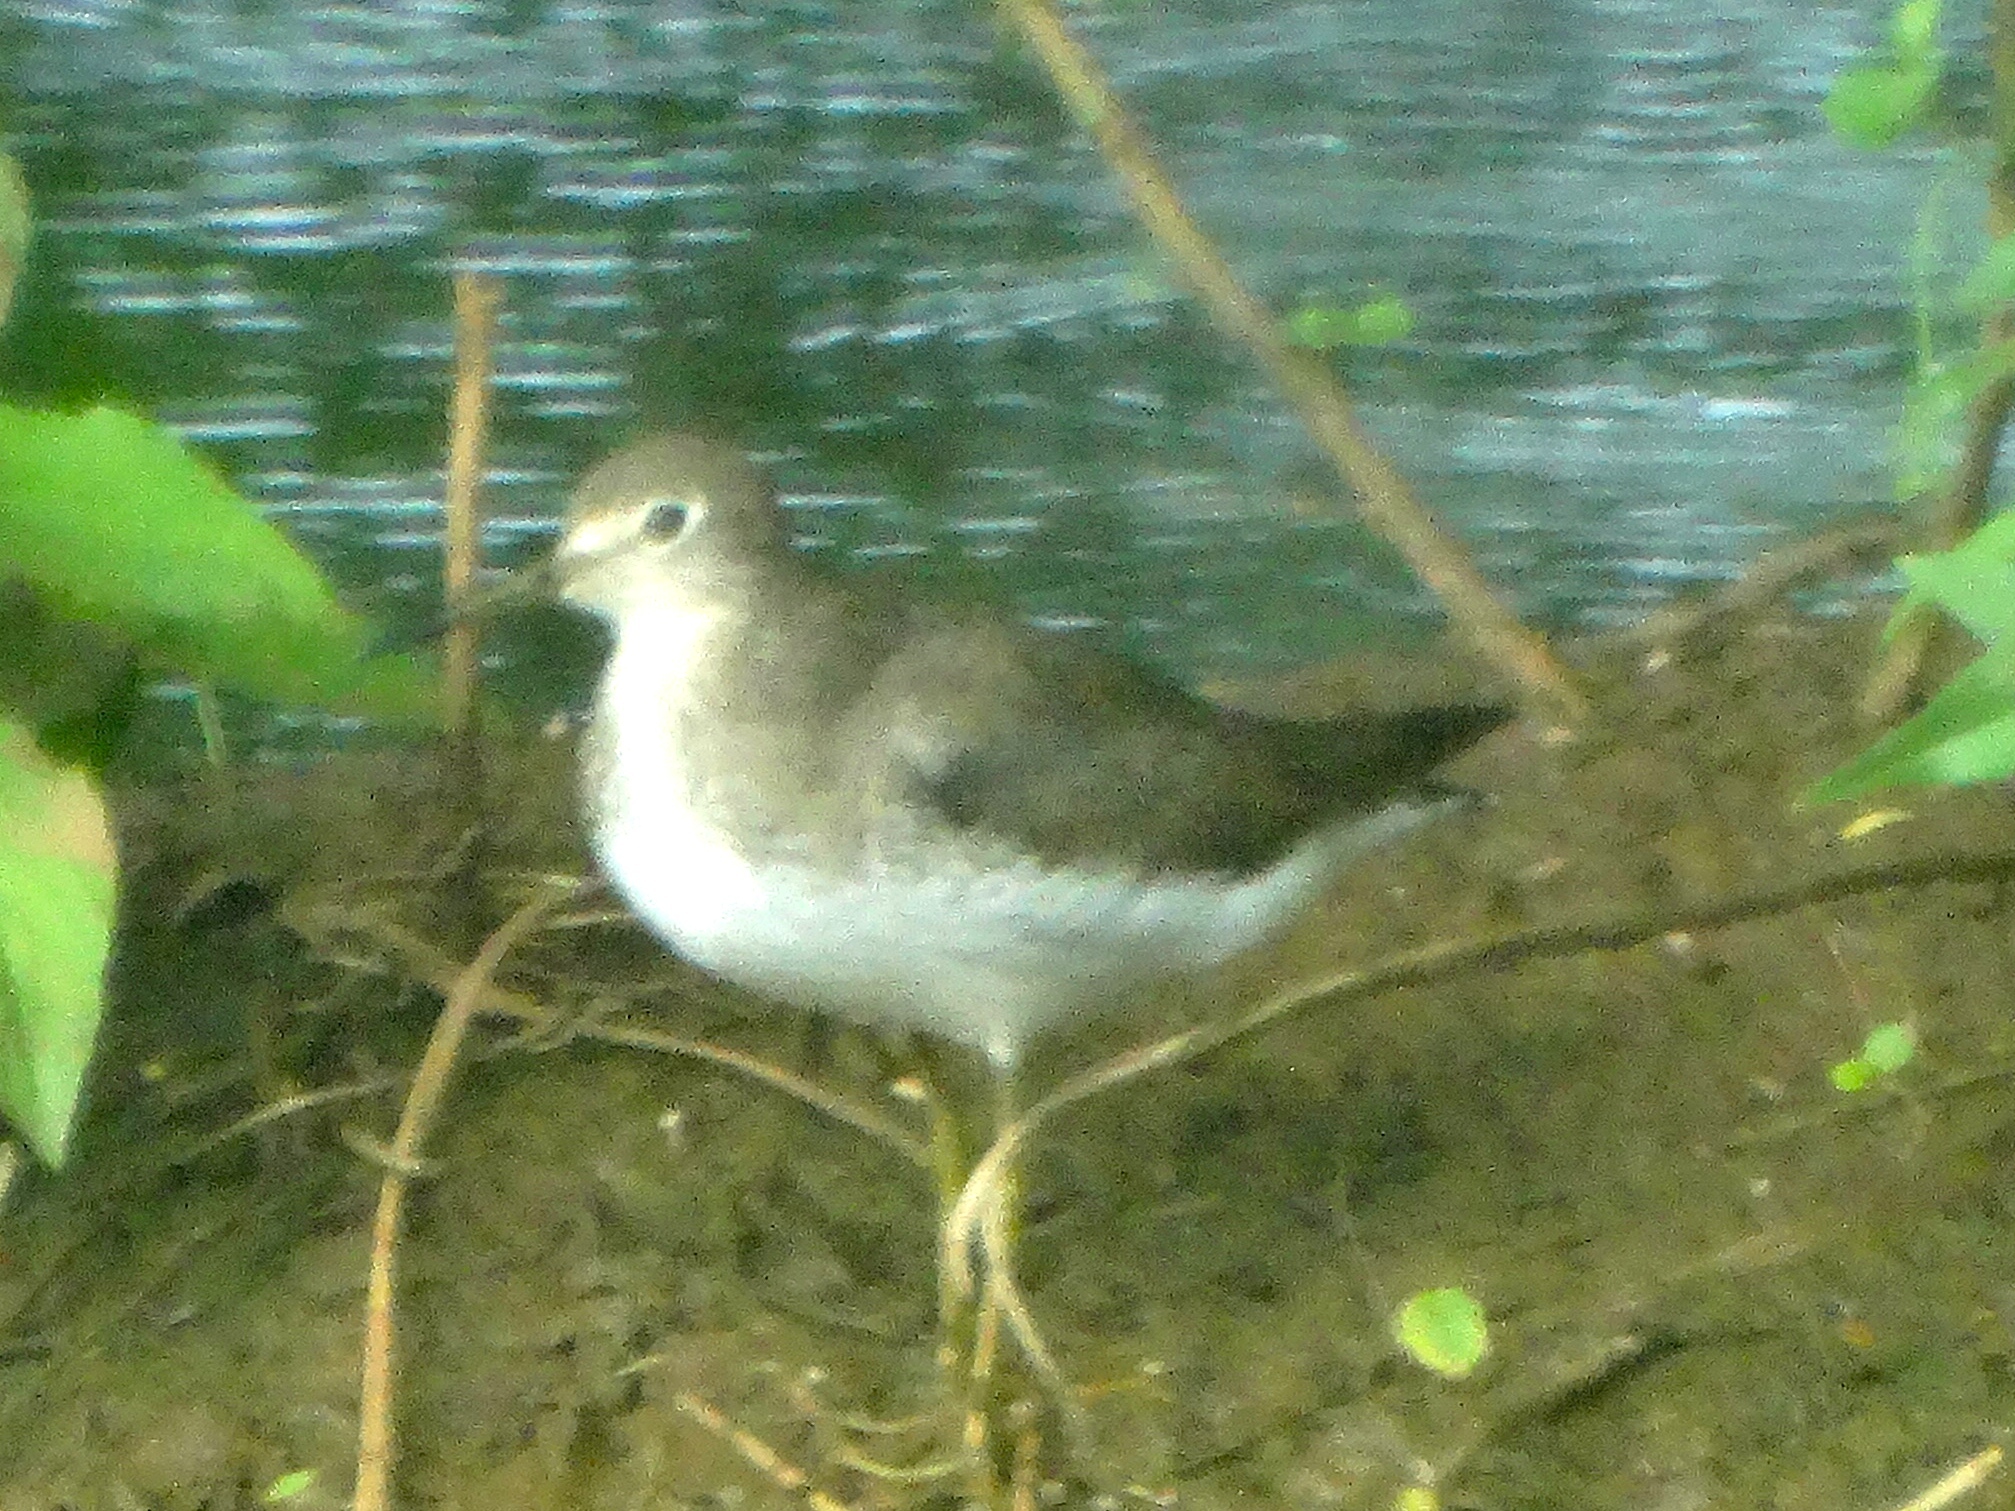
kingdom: Animalia
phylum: Chordata
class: Aves
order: Charadriiformes
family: Scolopacidae
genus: Tringa
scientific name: Tringa solitaria
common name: Solitary sandpiper
